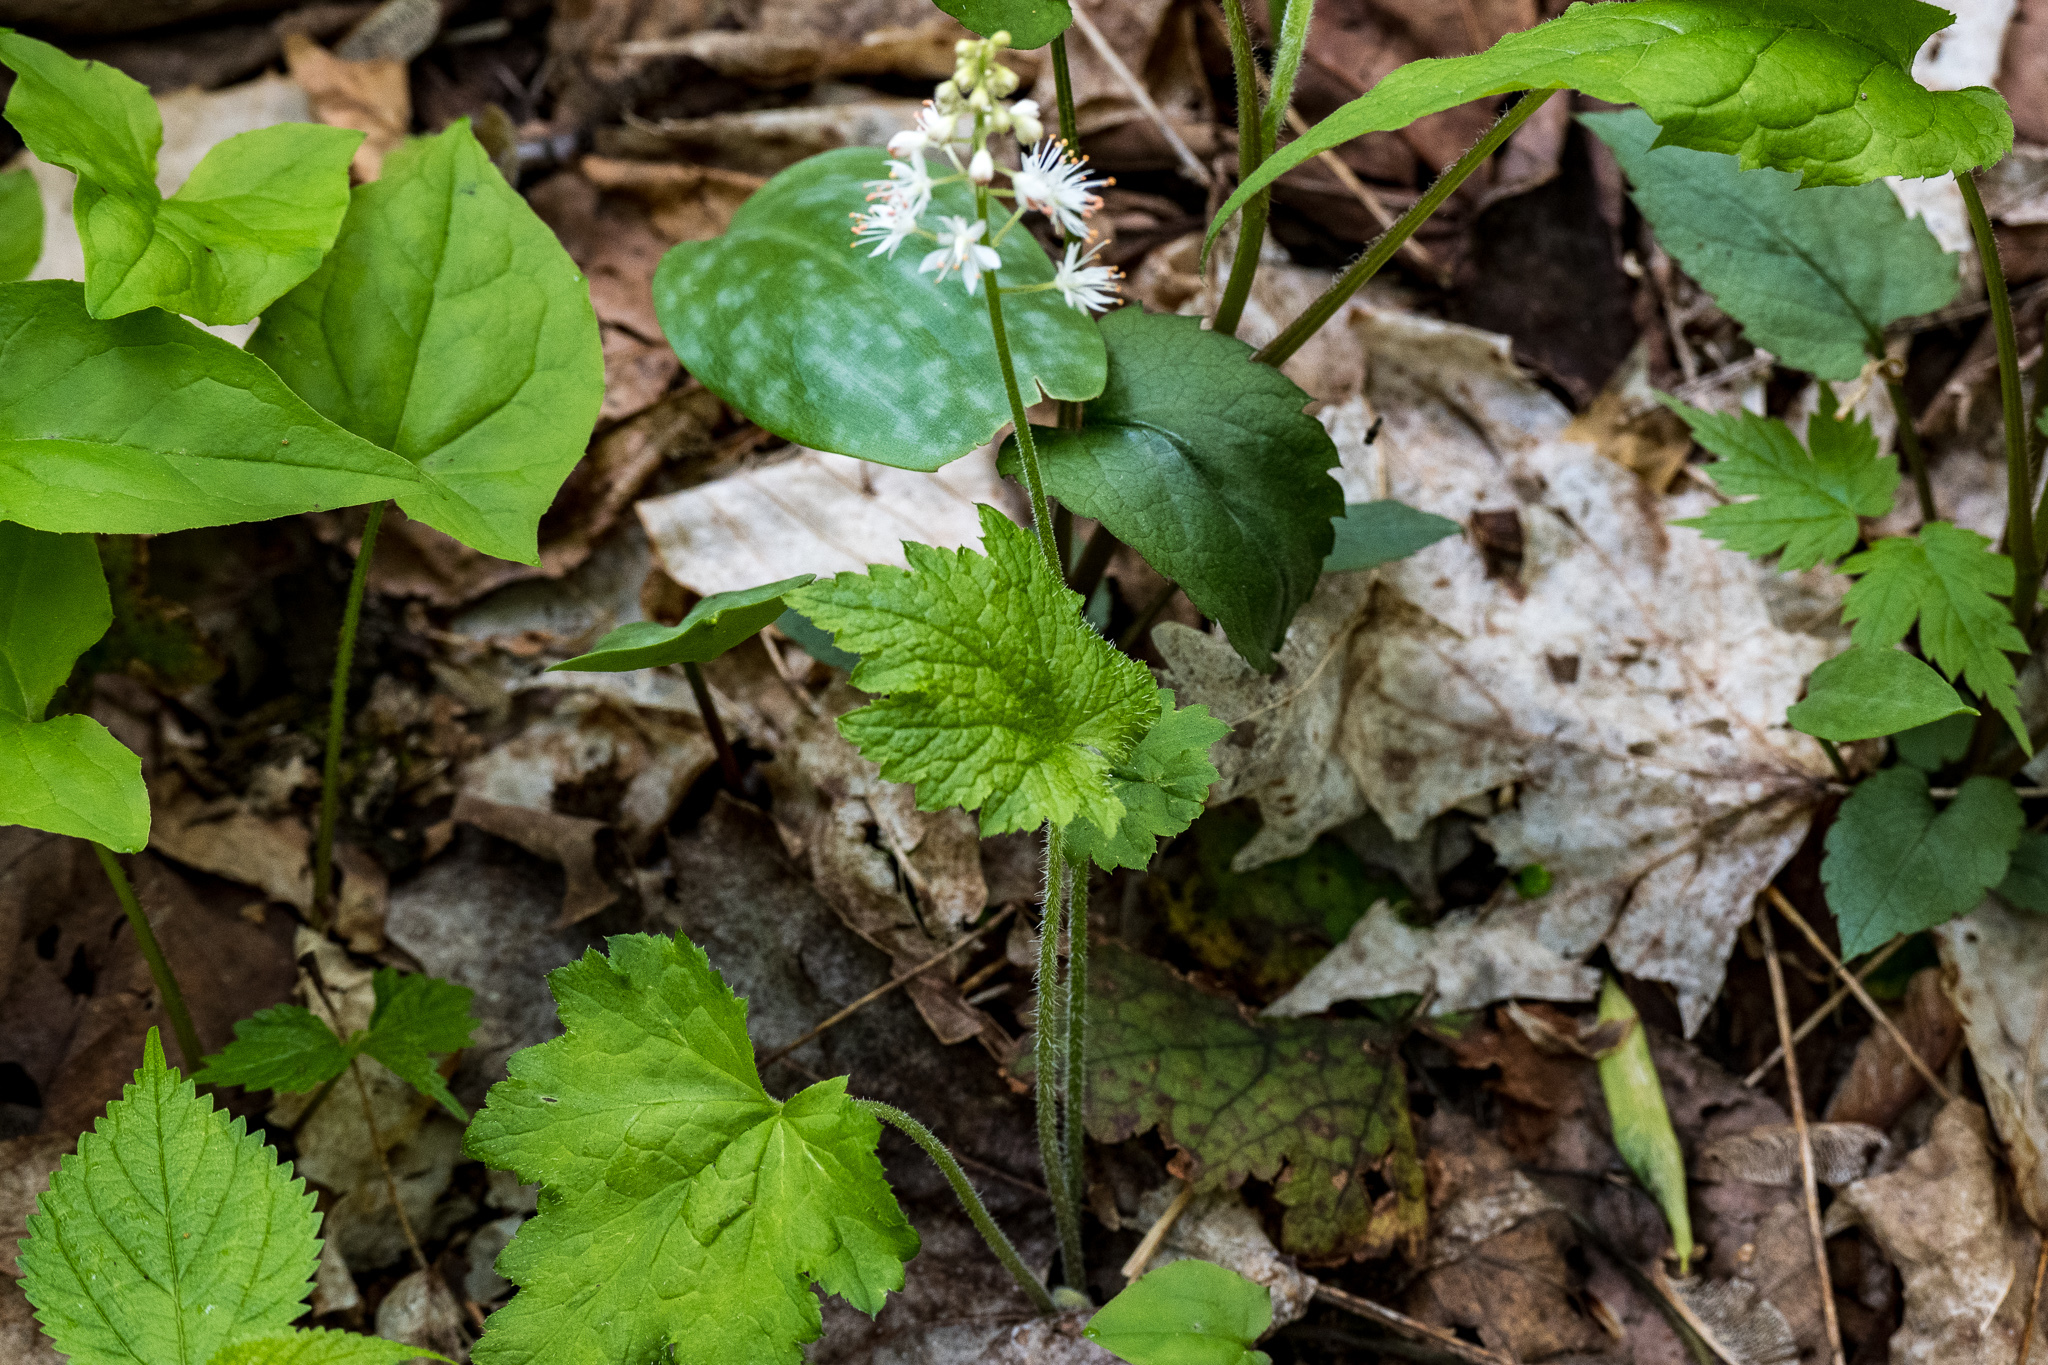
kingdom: Plantae
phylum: Tracheophyta
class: Magnoliopsida
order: Saxifragales
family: Saxifragaceae
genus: Tiarella
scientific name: Tiarella stolonifera
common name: Stoloniferous foamflower
